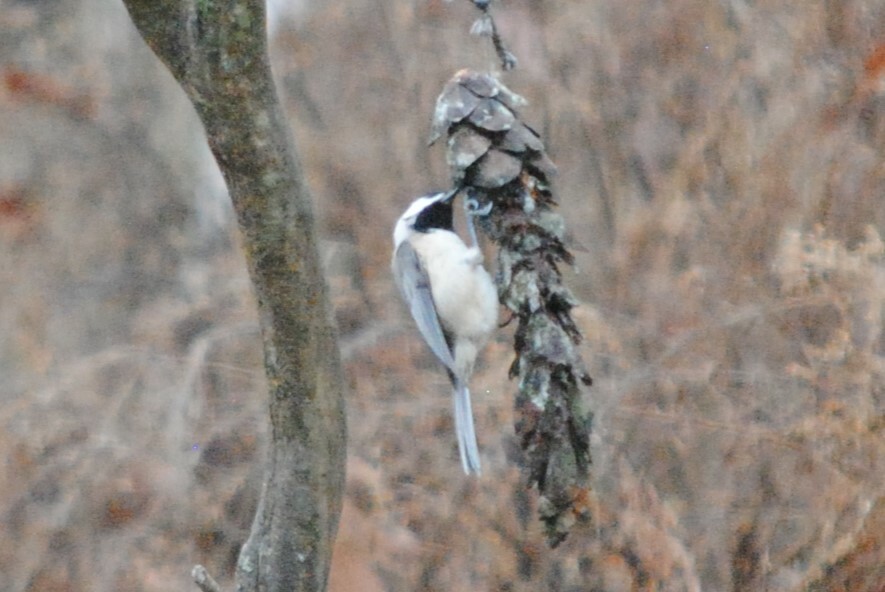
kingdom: Animalia
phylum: Chordata
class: Aves
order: Passeriformes
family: Paridae
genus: Poecile
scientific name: Poecile carolinensis
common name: Carolina chickadee
